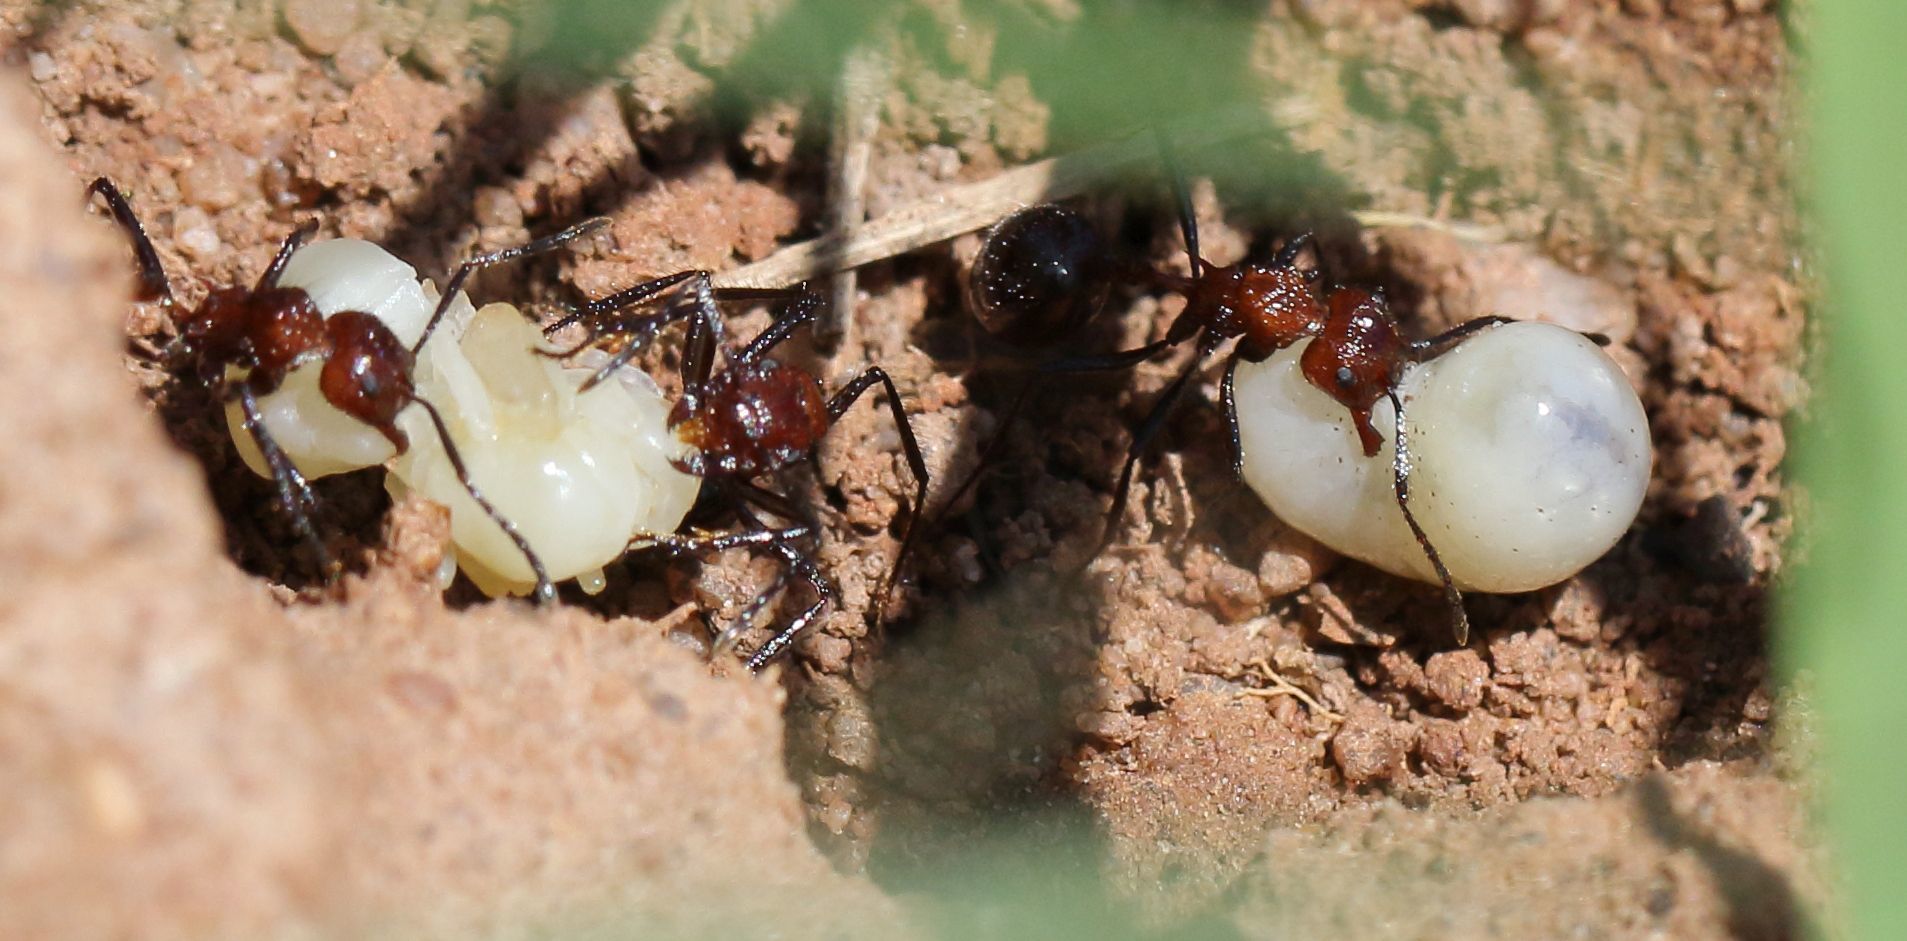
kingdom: Animalia
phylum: Arthropoda
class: Insecta
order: Hymenoptera
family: Formicidae
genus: Myrmicaria
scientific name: Myrmicaria natalensis
